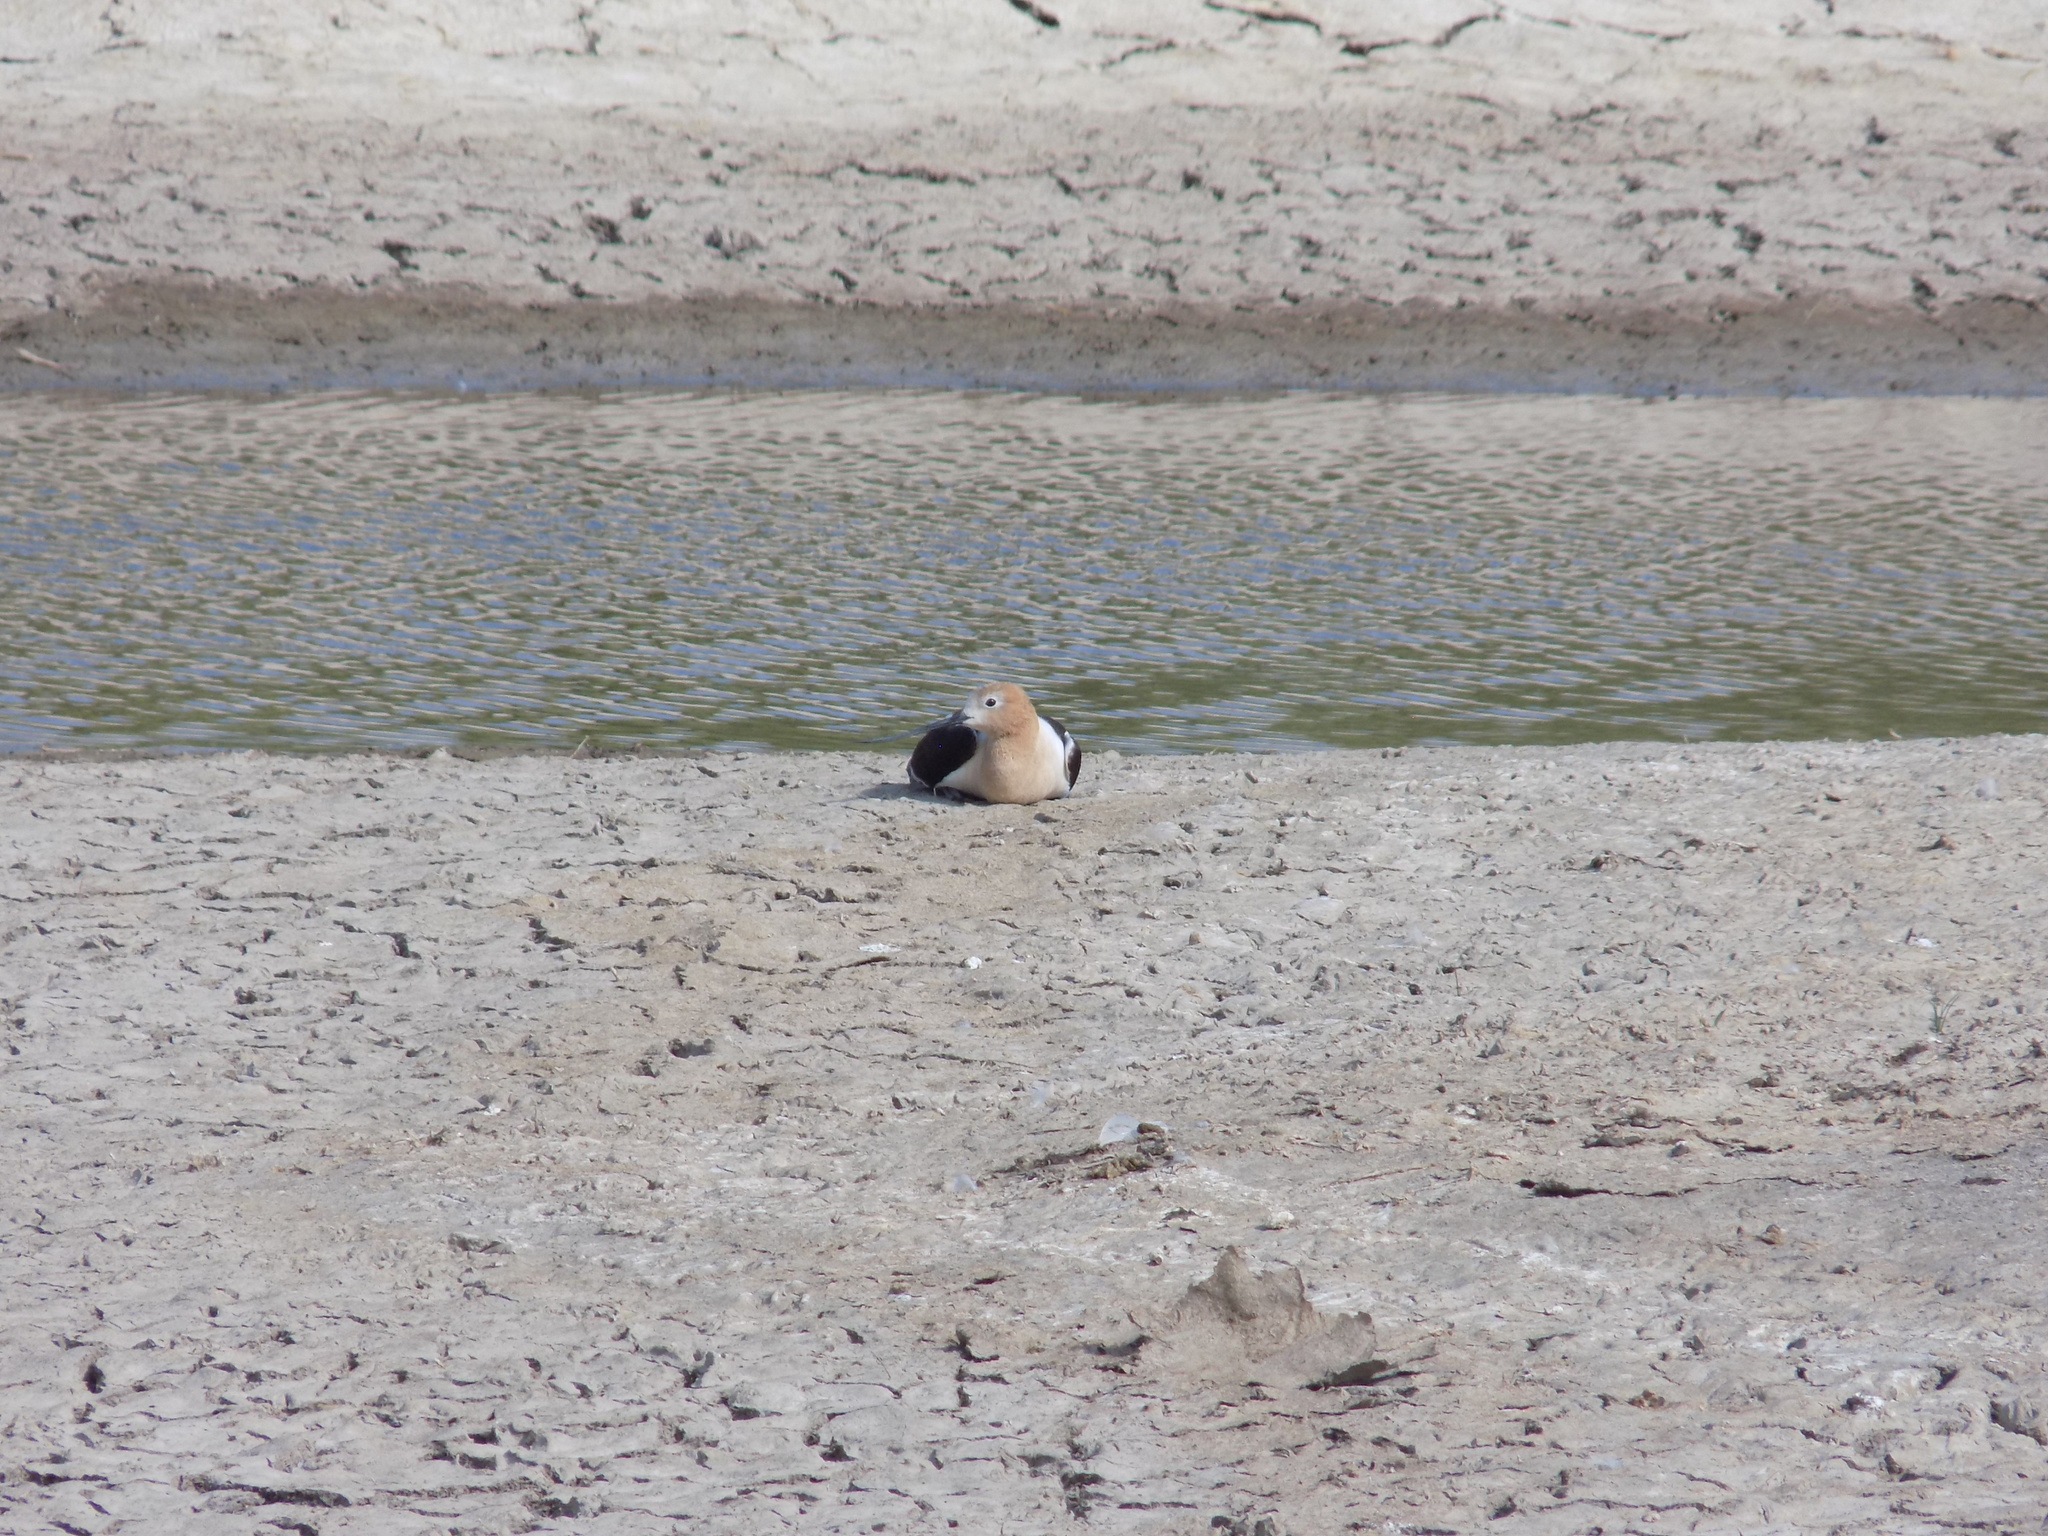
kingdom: Animalia
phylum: Chordata
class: Aves
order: Charadriiformes
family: Recurvirostridae
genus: Recurvirostra
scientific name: Recurvirostra americana
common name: American avocet
